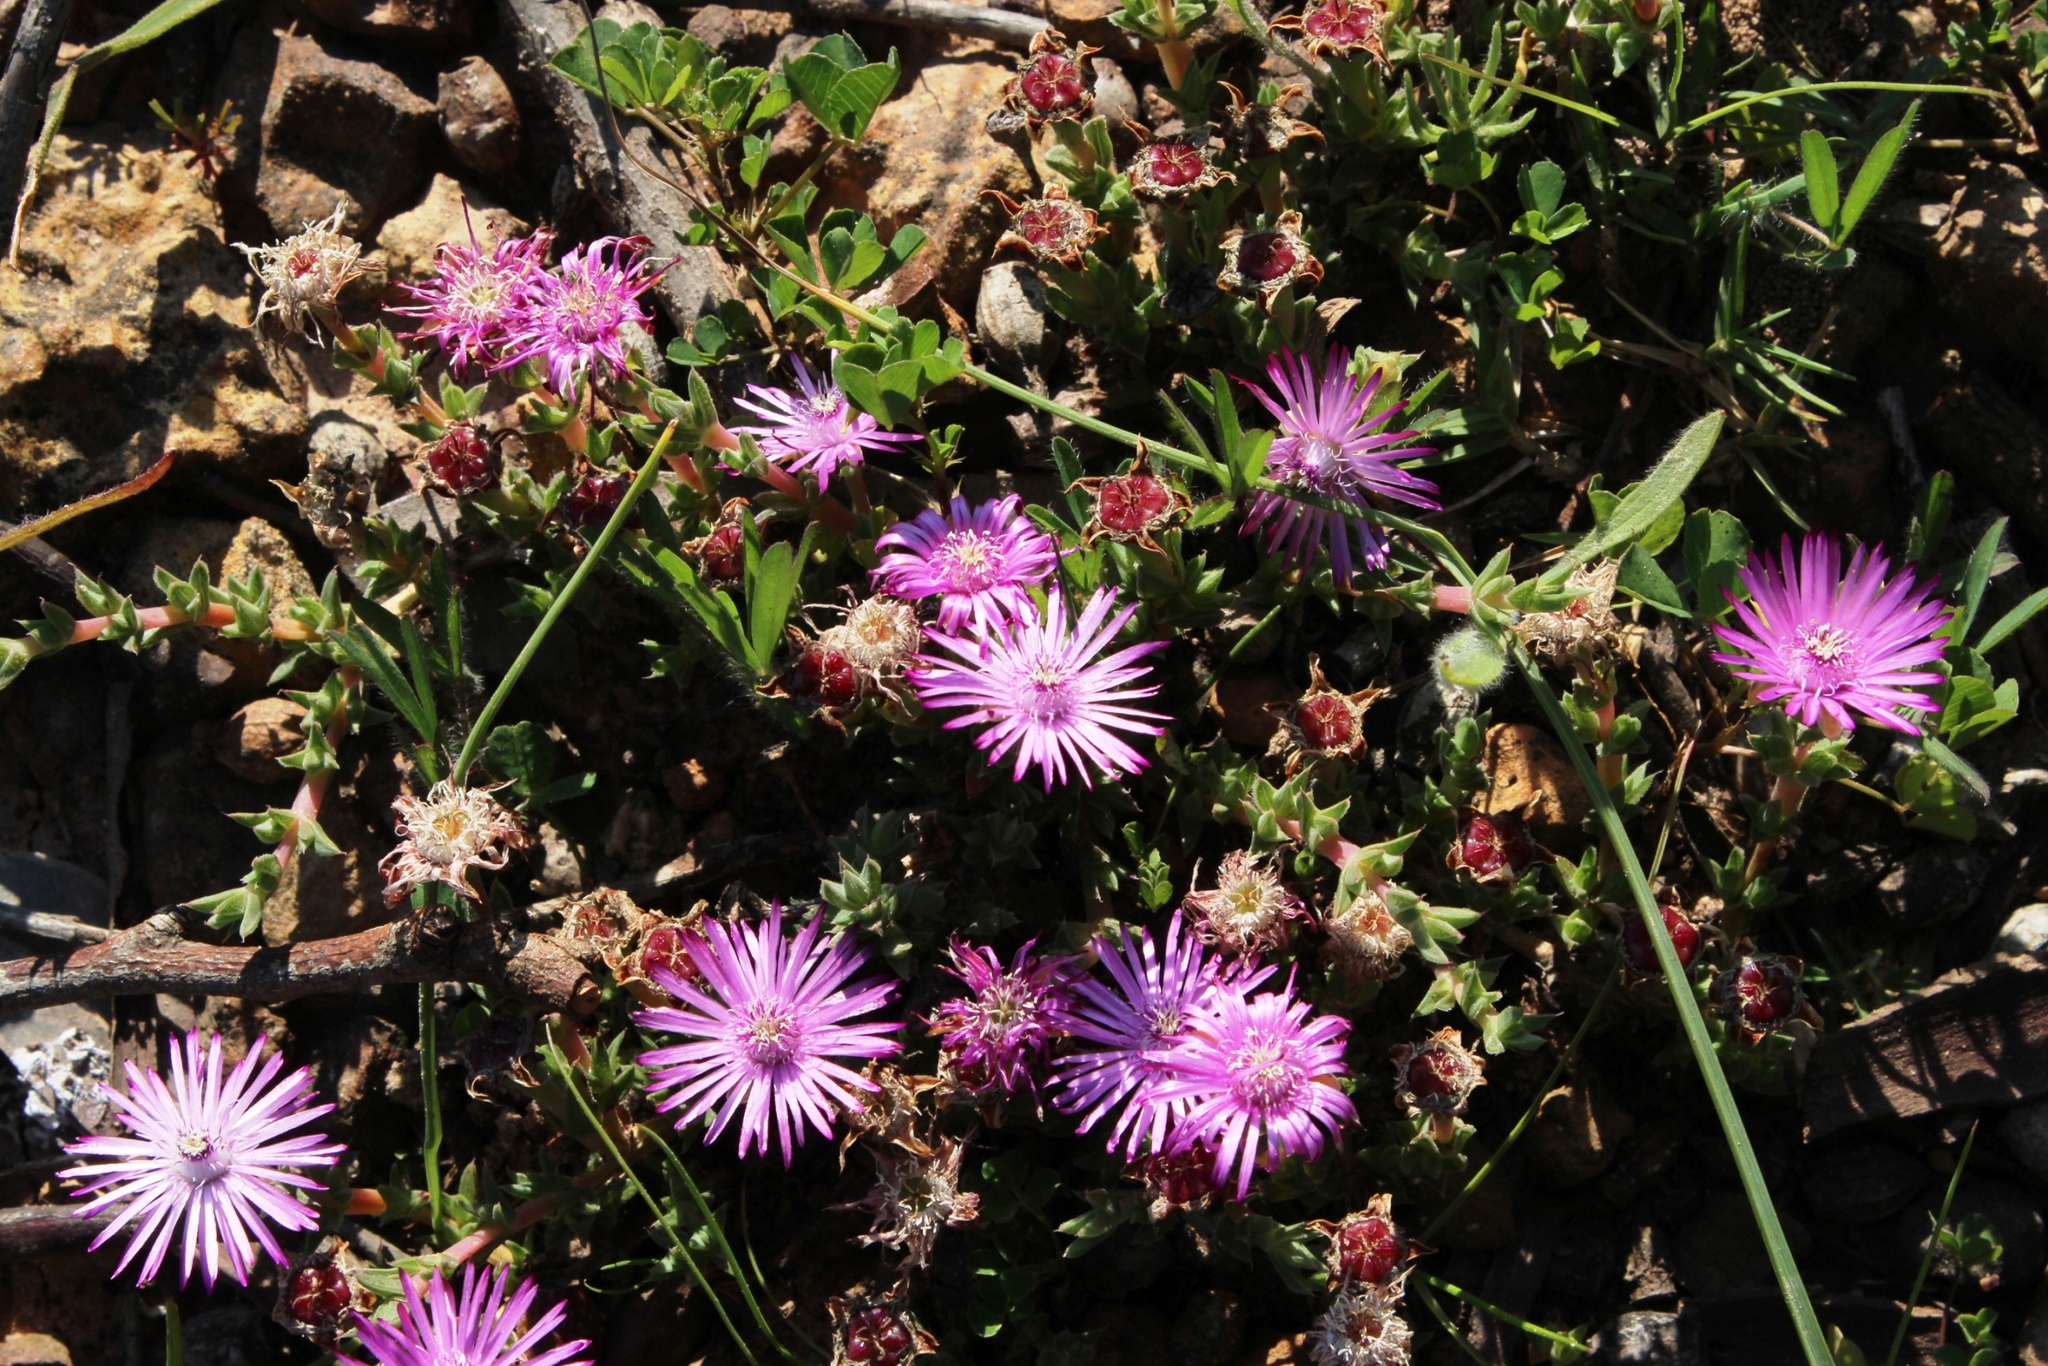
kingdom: Plantae
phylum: Tracheophyta
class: Magnoliopsida
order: Caryophyllales
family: Aizoaceae
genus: Antimima
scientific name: Antimima microphylla
